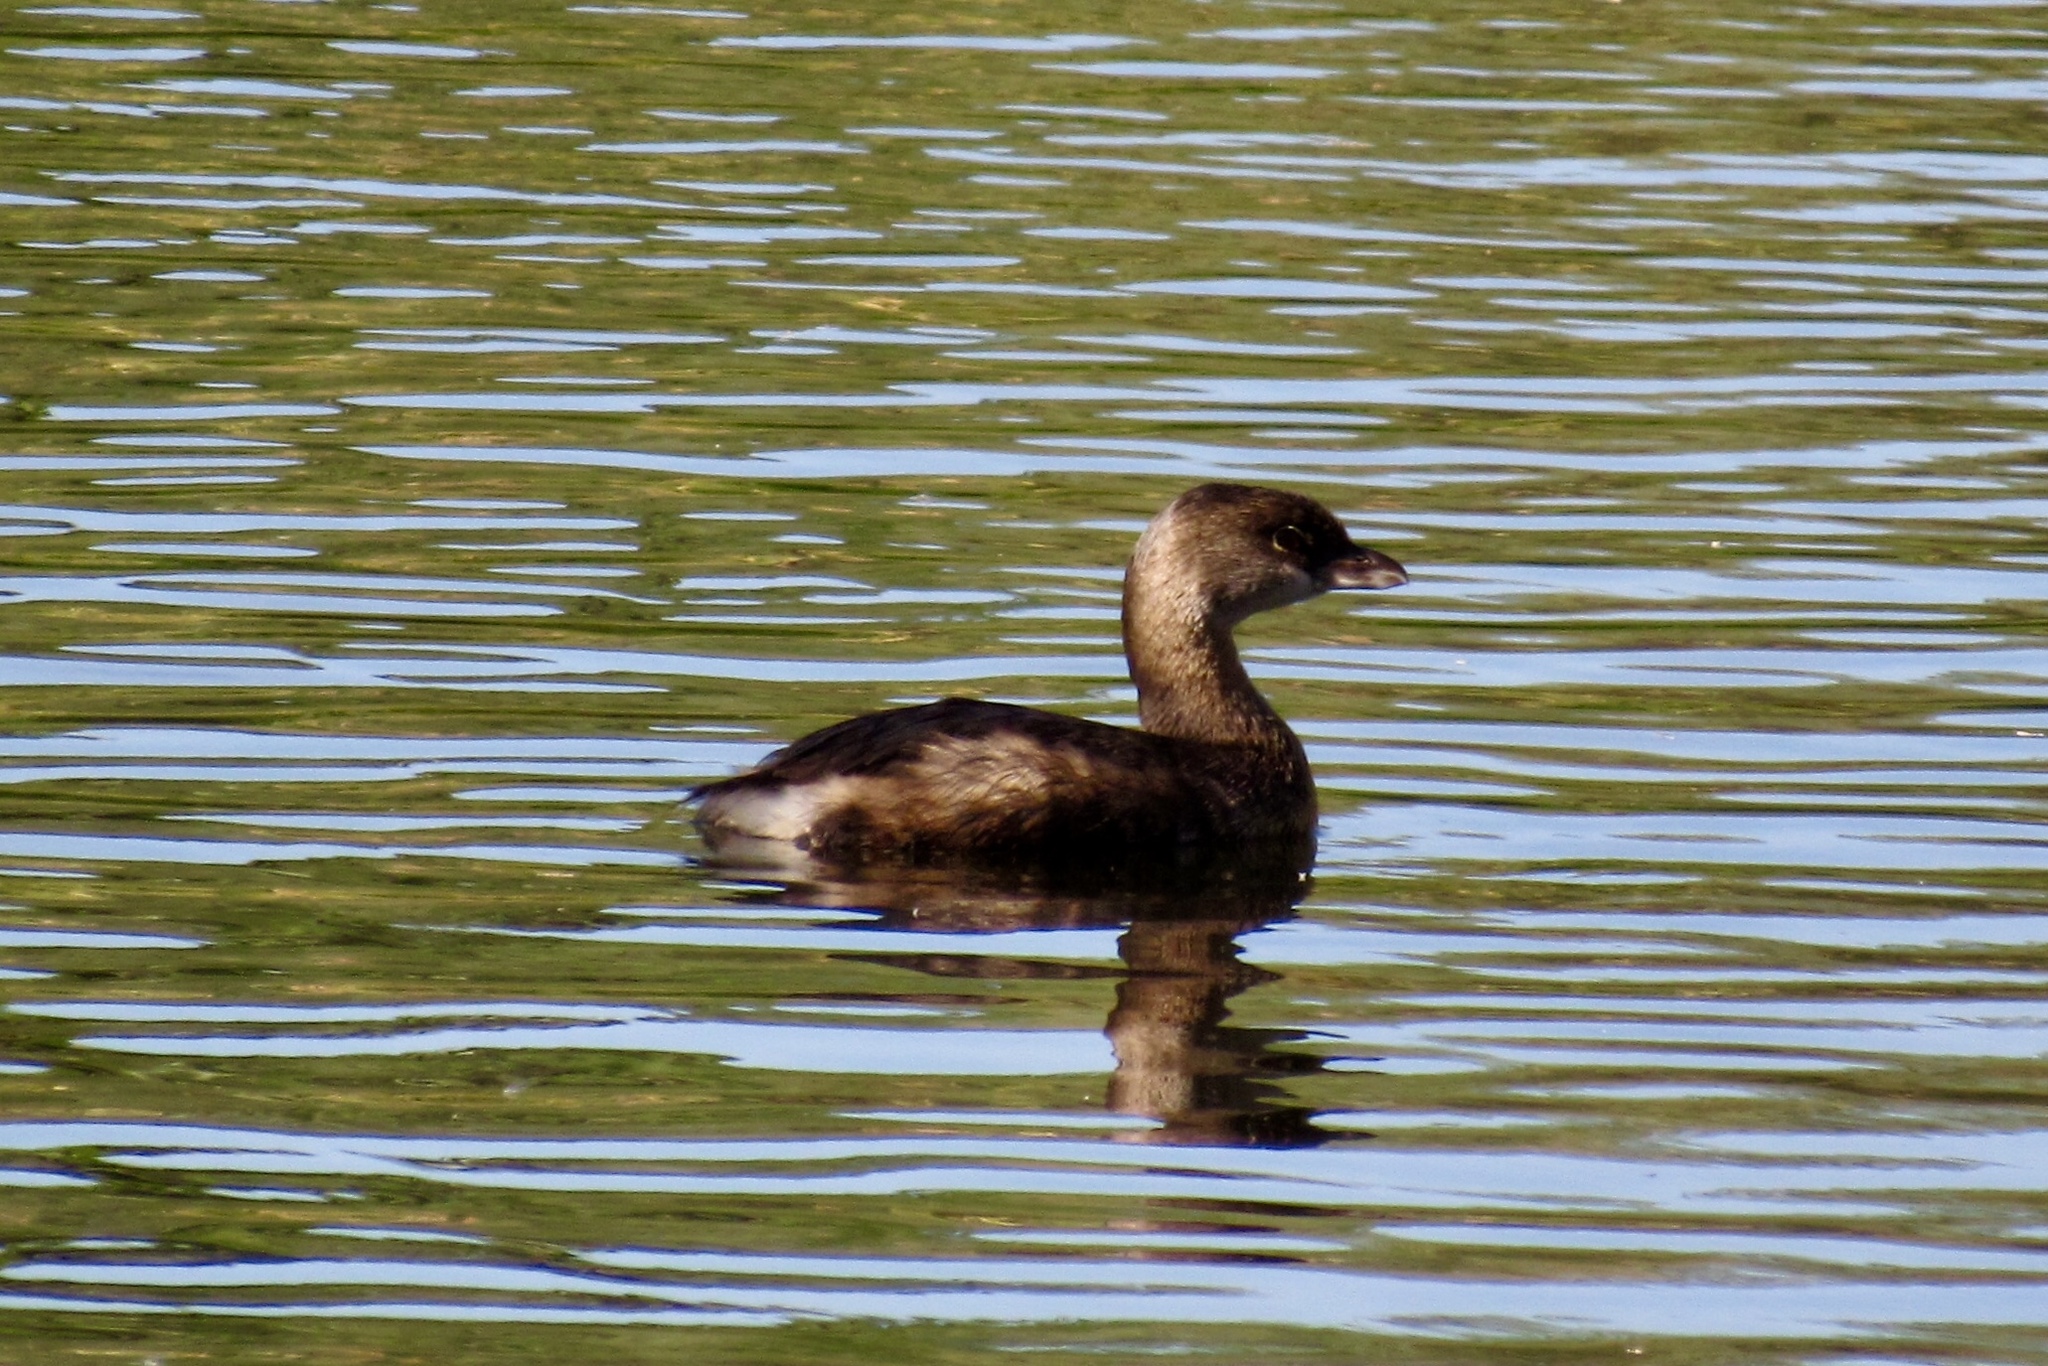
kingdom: Animalia
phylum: Chordata
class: Aves
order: Podicipediformes
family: Podicipedidae
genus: Podilymbus
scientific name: Podilymbus podiceps
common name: Pied-billed grebe
